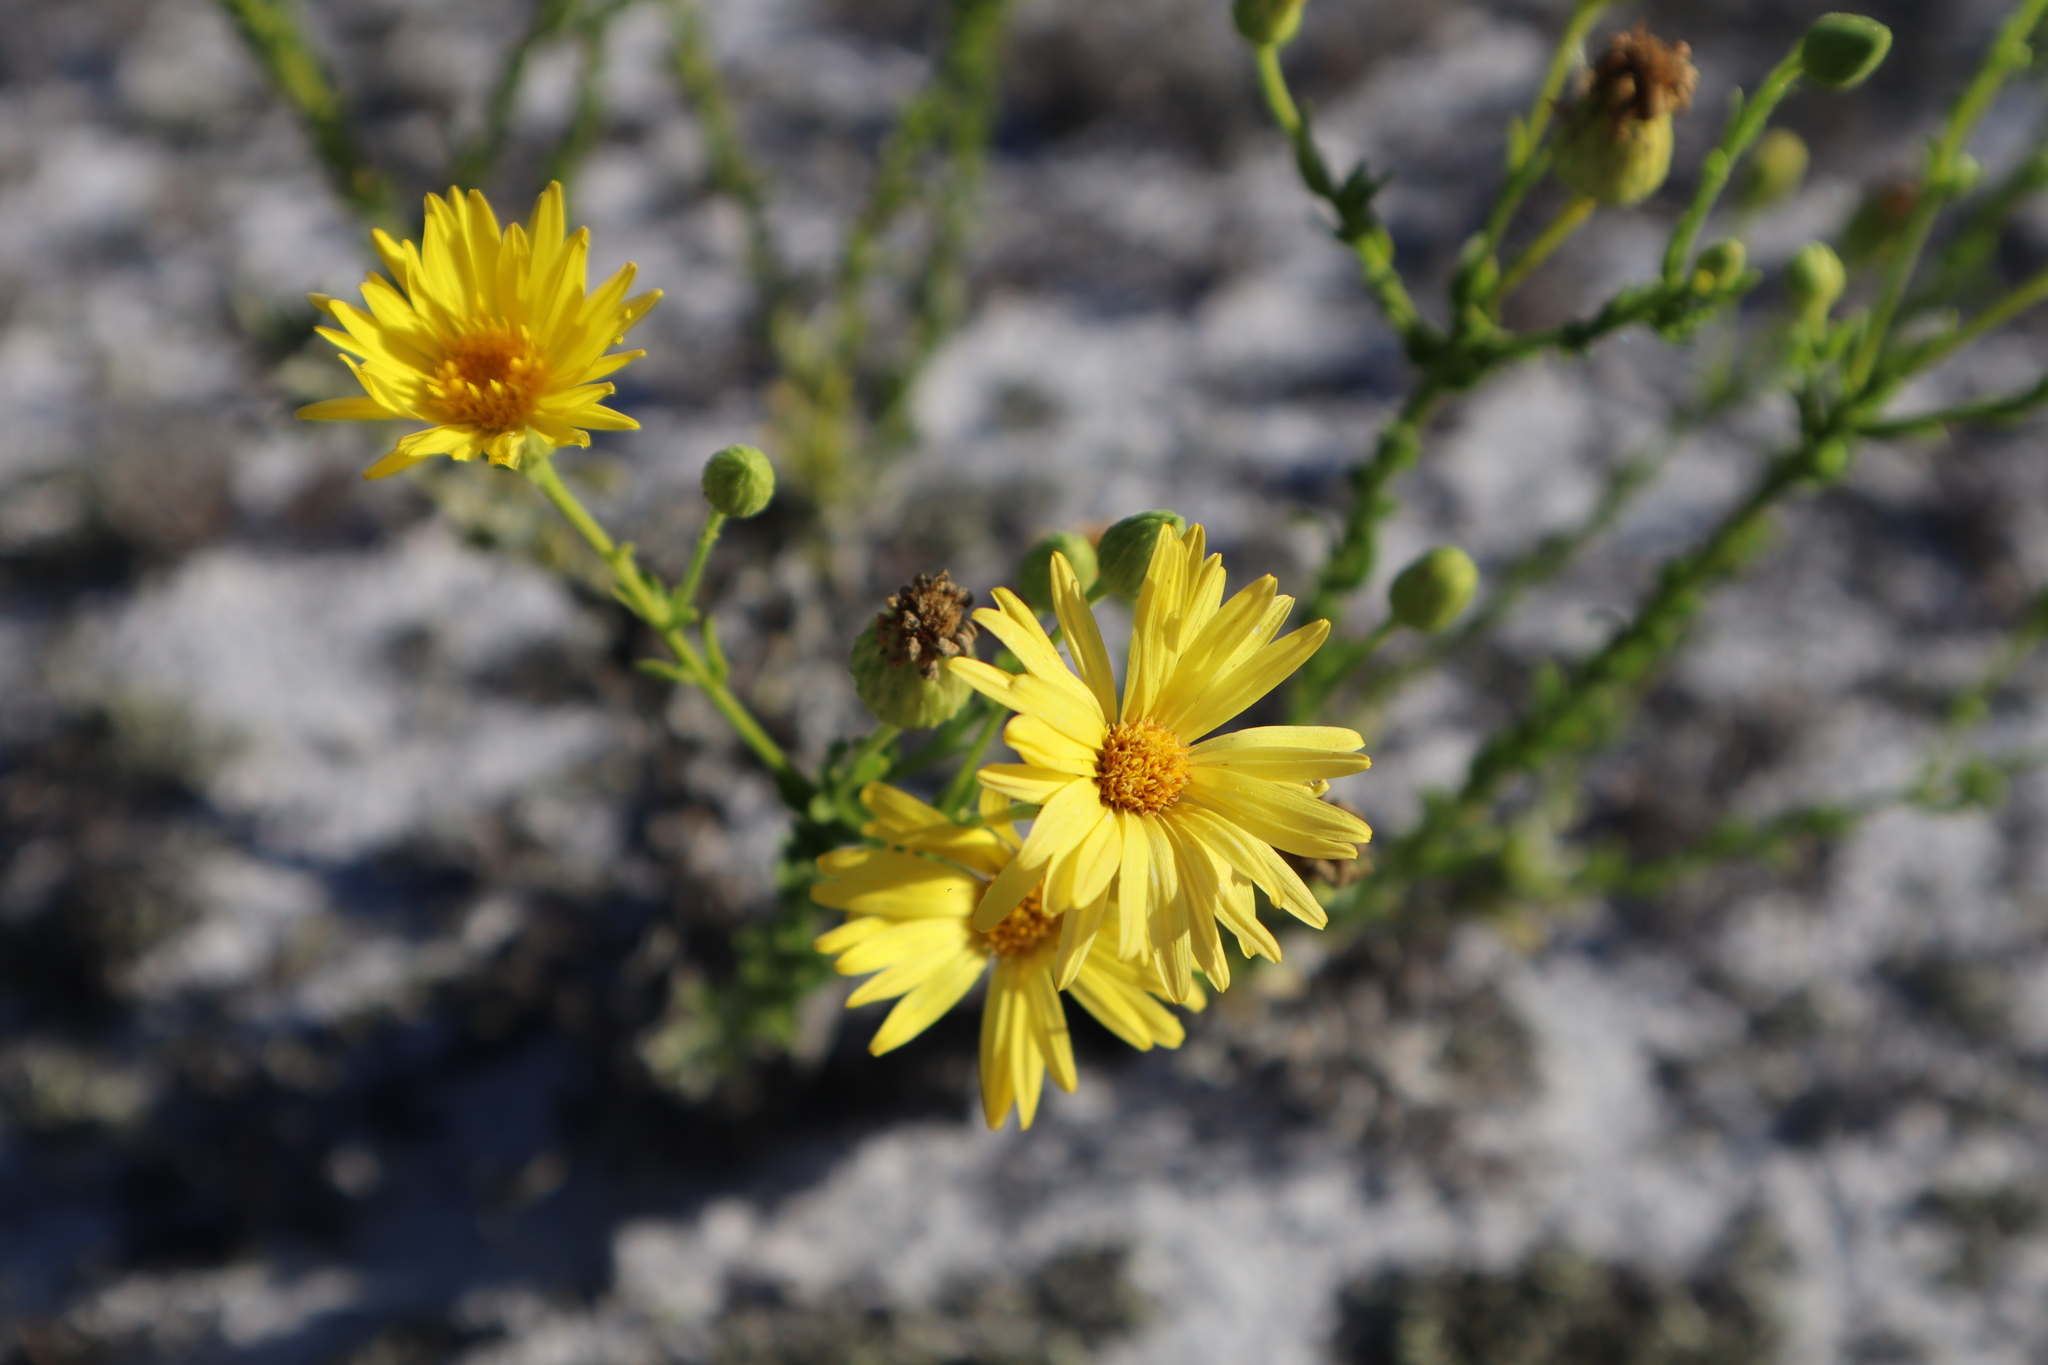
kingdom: Plantae
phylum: Tracheophyta
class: Magnoliopsida
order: Asterales
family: Asteraceae
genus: Chrysopsis
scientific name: Chrysopsis scabrella
